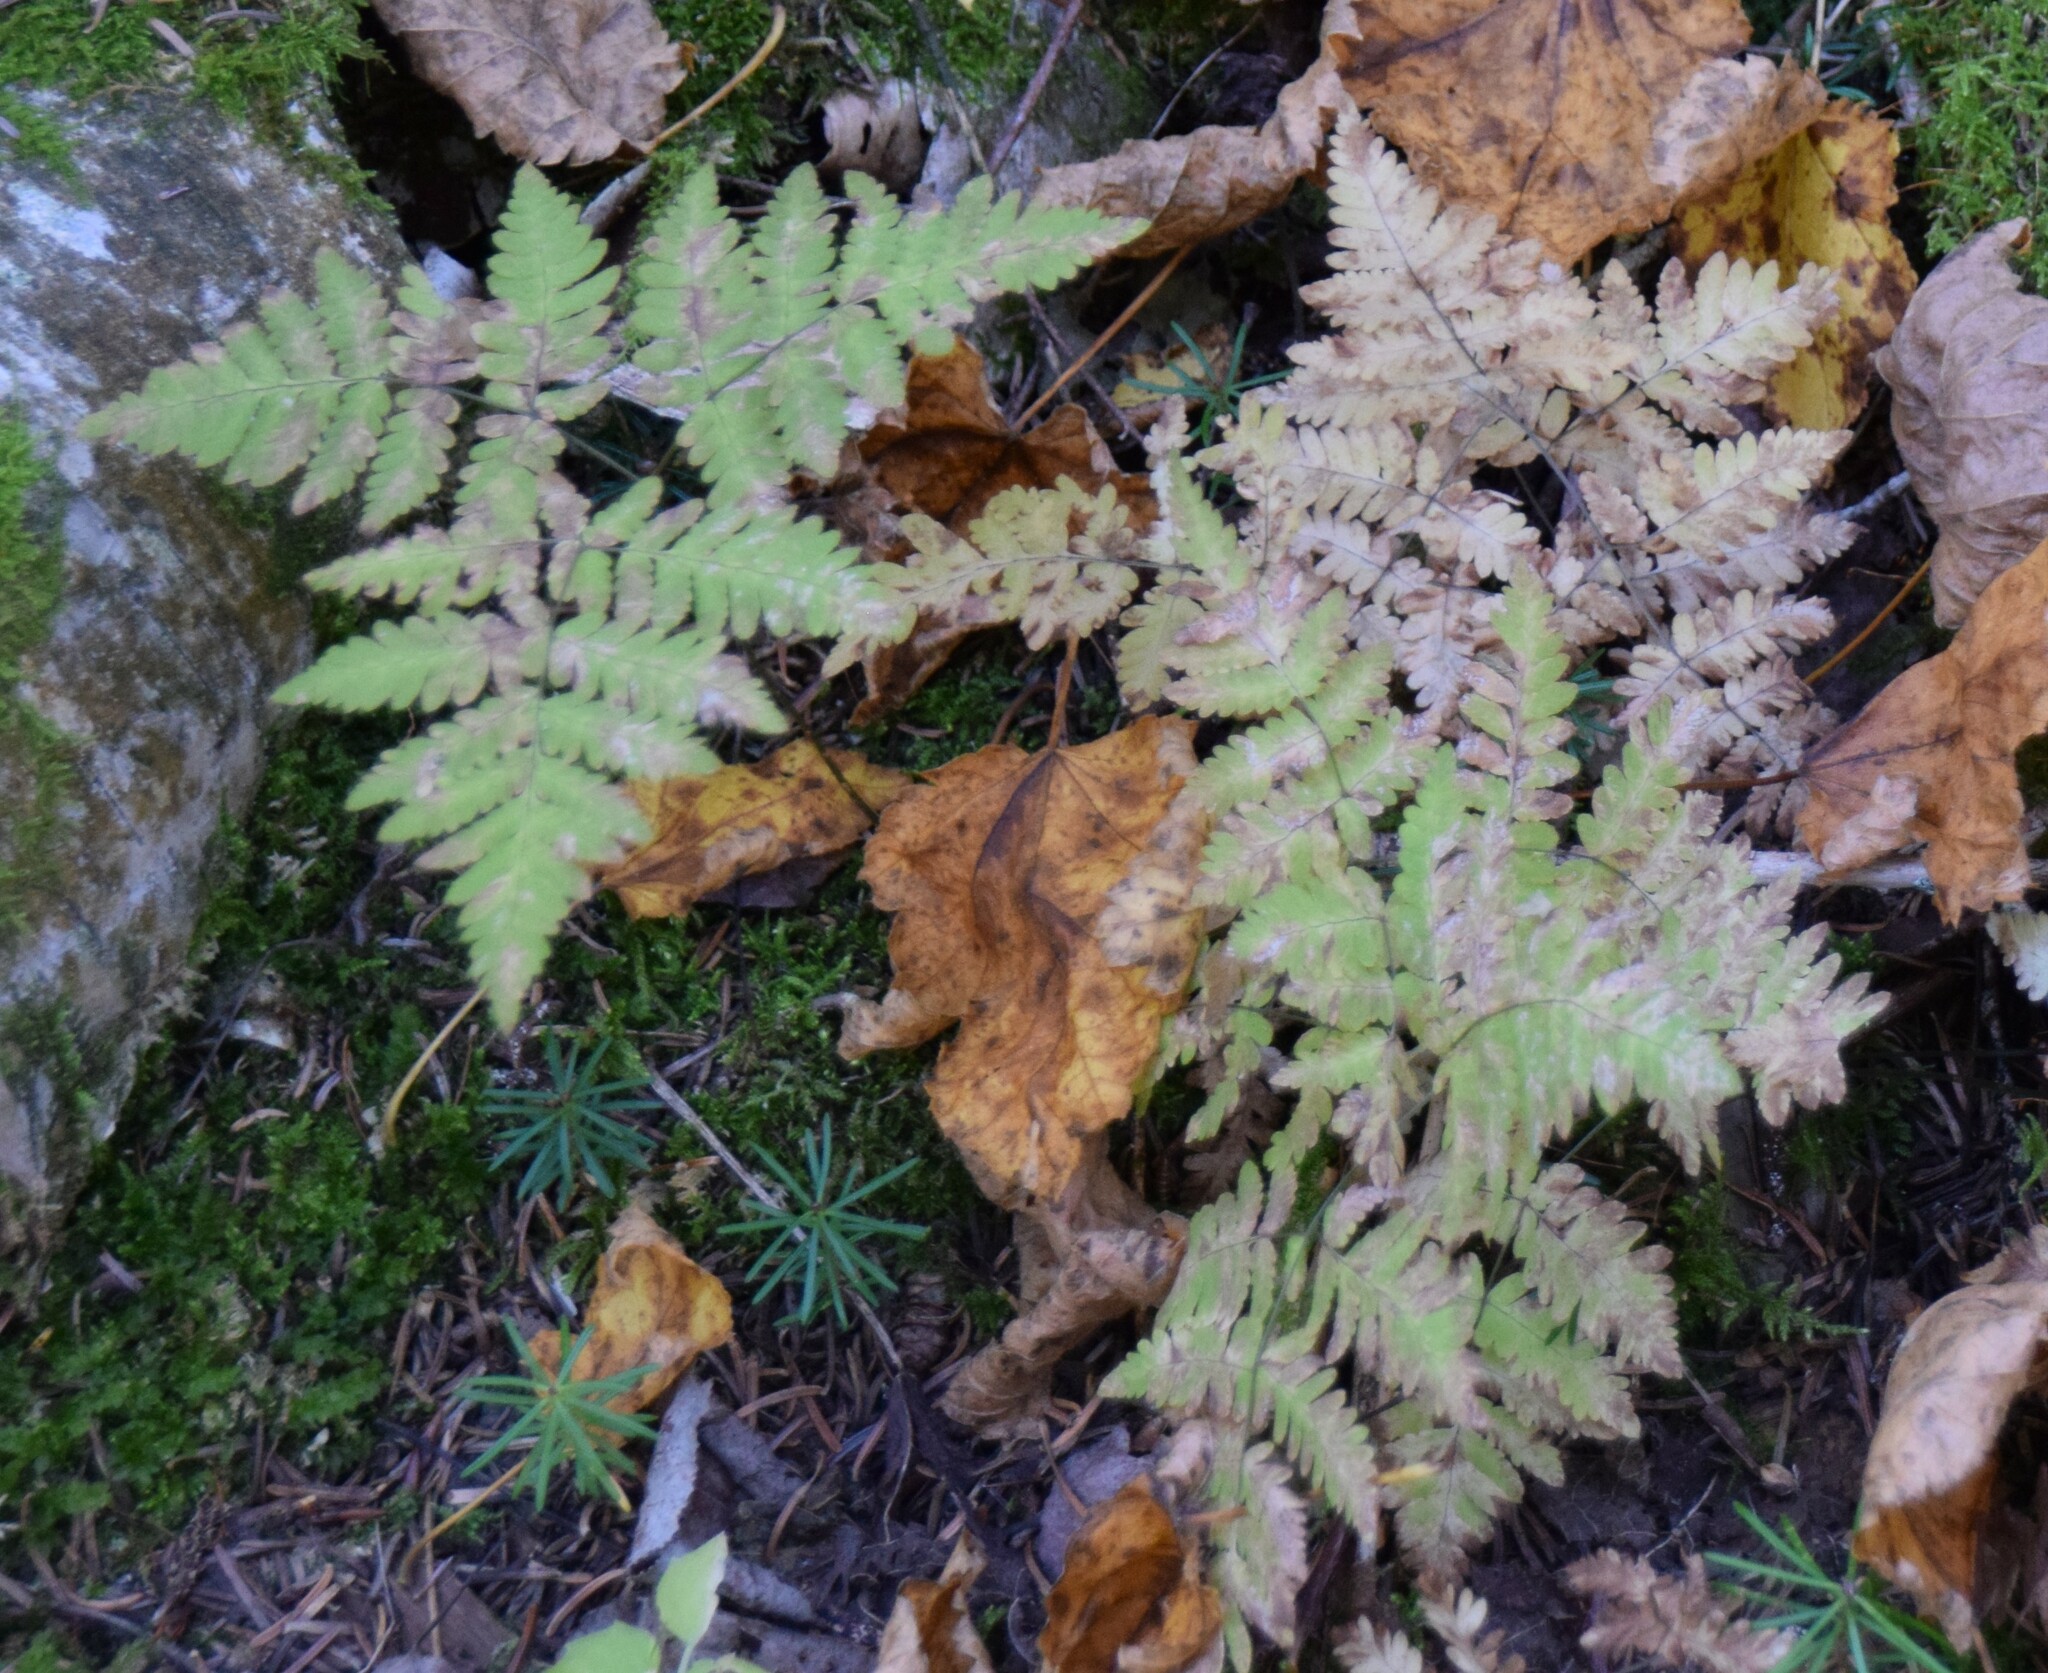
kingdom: Plantae
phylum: Tracheophyta
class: Polypodiopsida
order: Polypodiales
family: Cystopteridaceae
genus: Gymnocarpium
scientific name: Gymnocarpium dryopteris
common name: Oak fern
